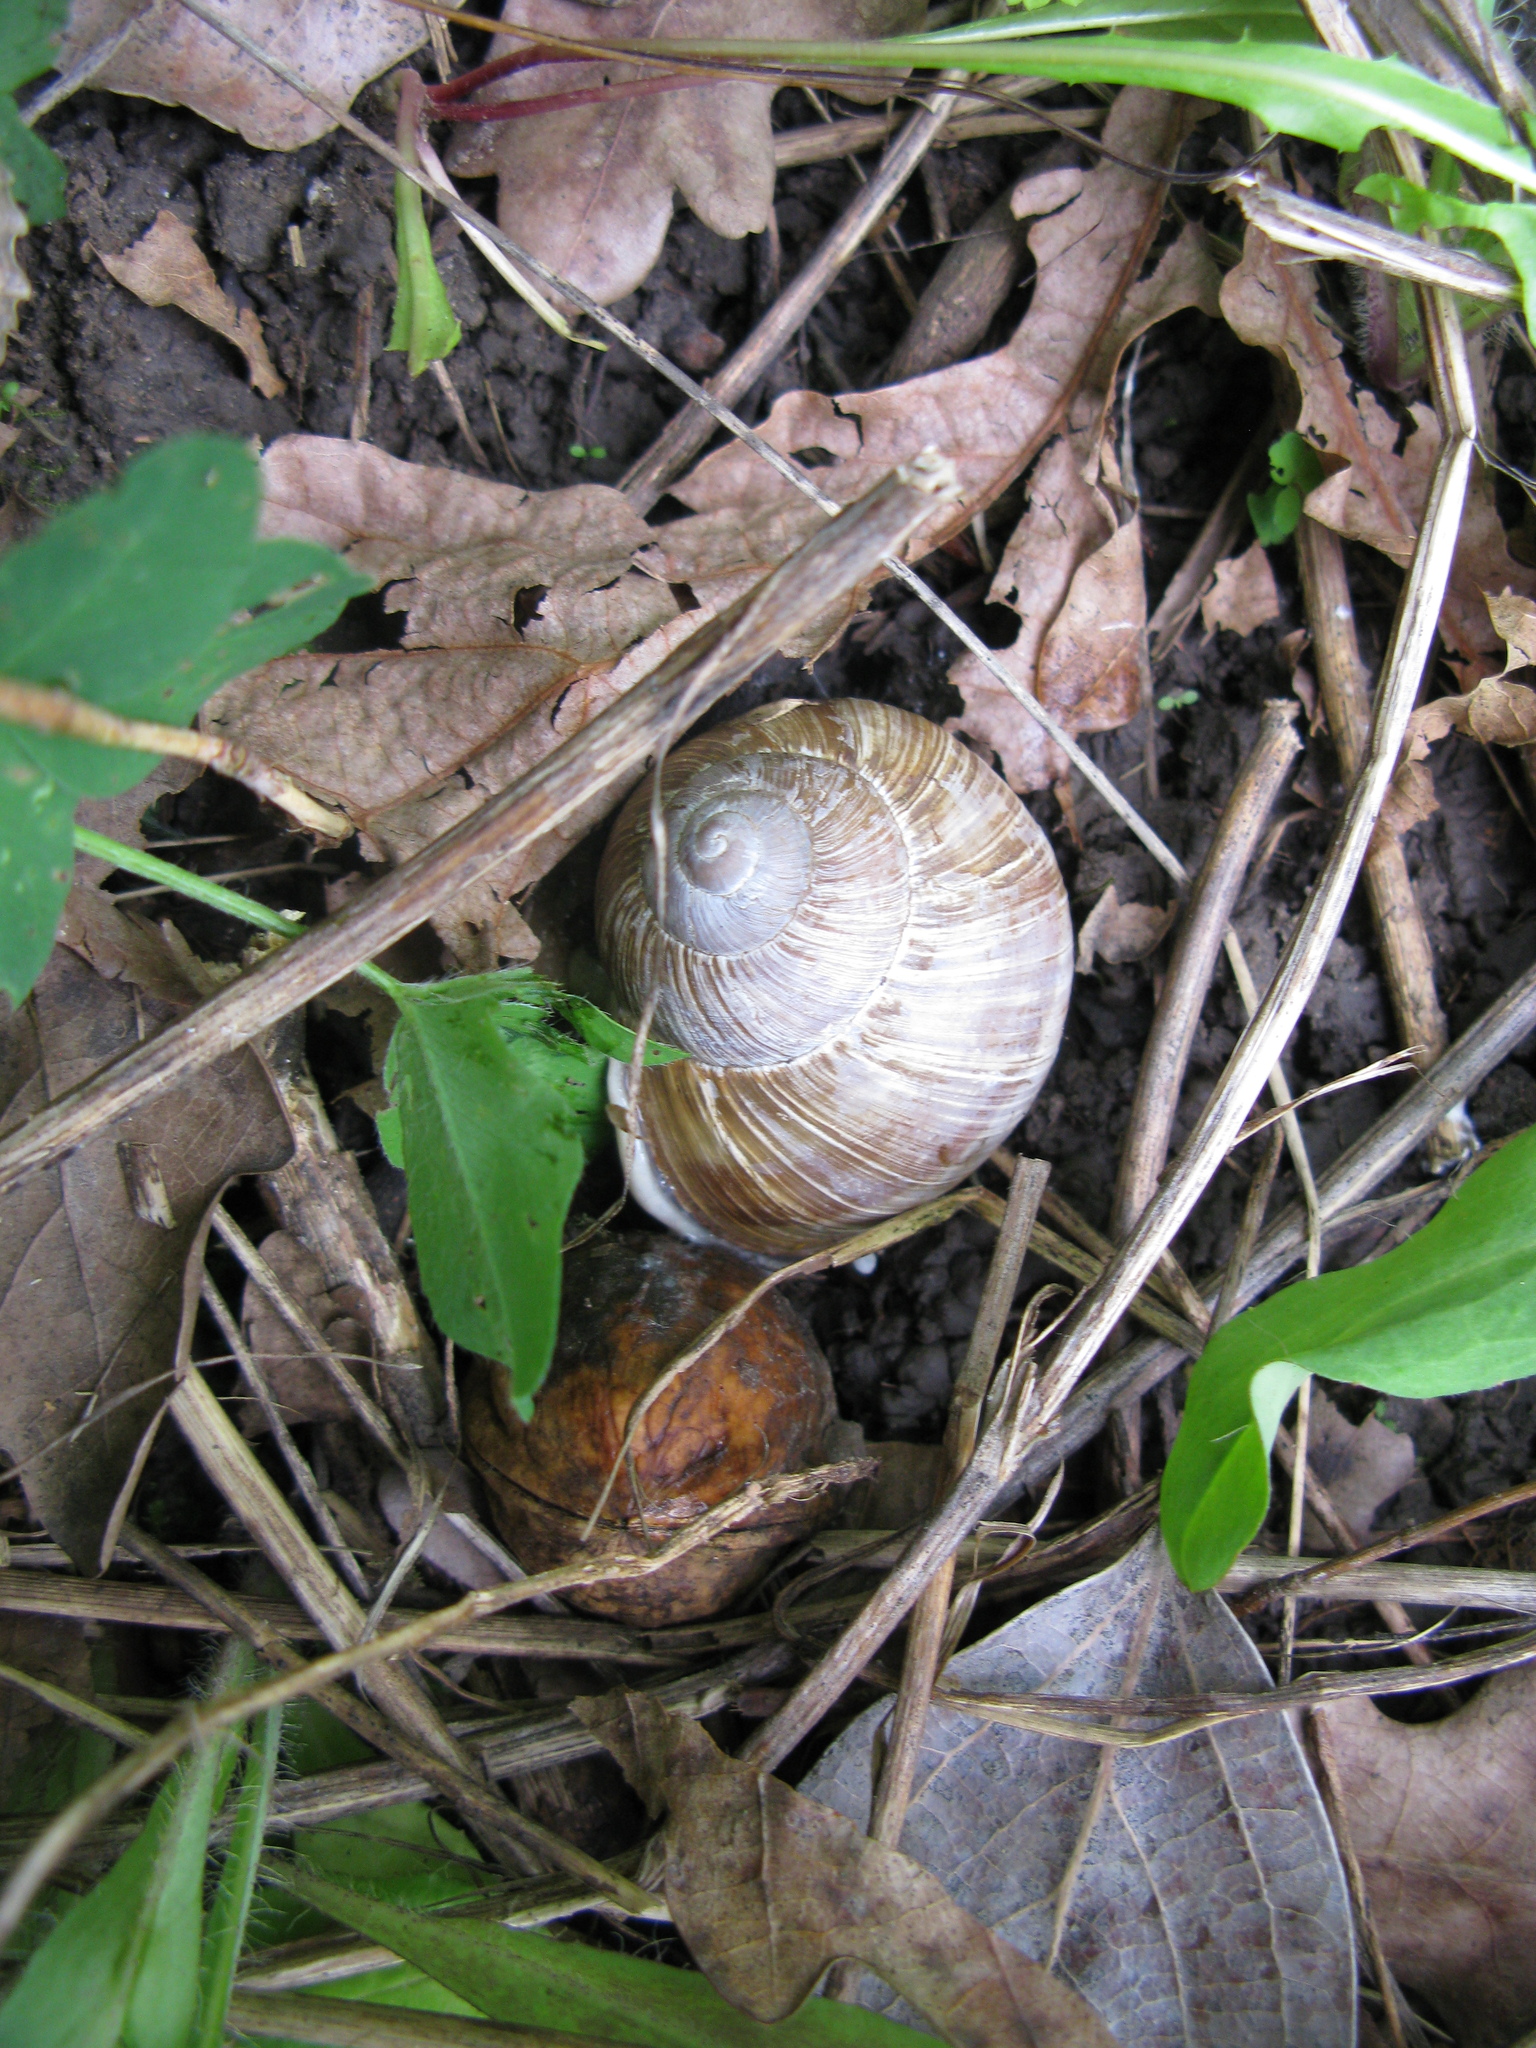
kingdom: Animalia
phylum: Mollusca
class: Gastropoda
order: Stylommatophora
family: Helicidae
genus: Helix
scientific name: Helix pomatia
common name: Roman snail
